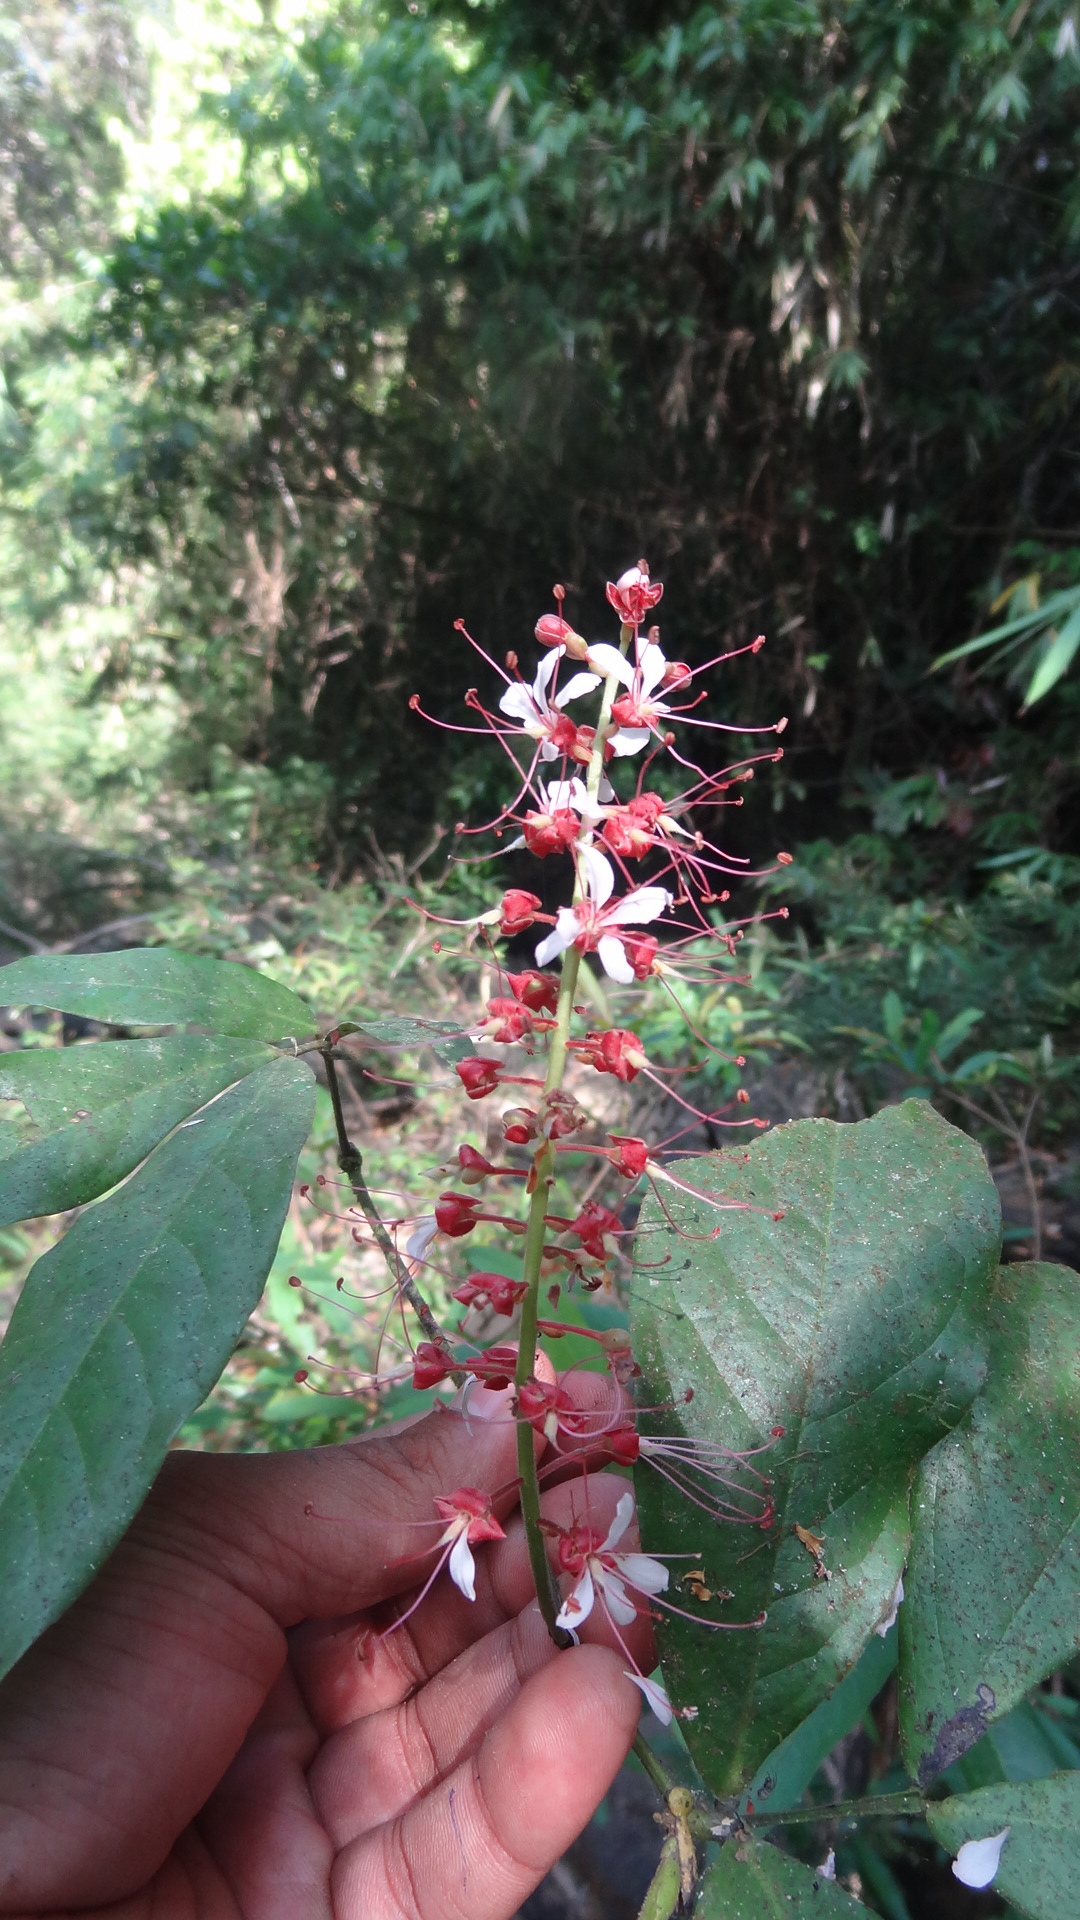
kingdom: Plantae
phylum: Tracheophyta
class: Magnoliopsida
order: Fabales
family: Fabaceae
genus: Humboldtia
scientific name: Humboldtia brunonis
